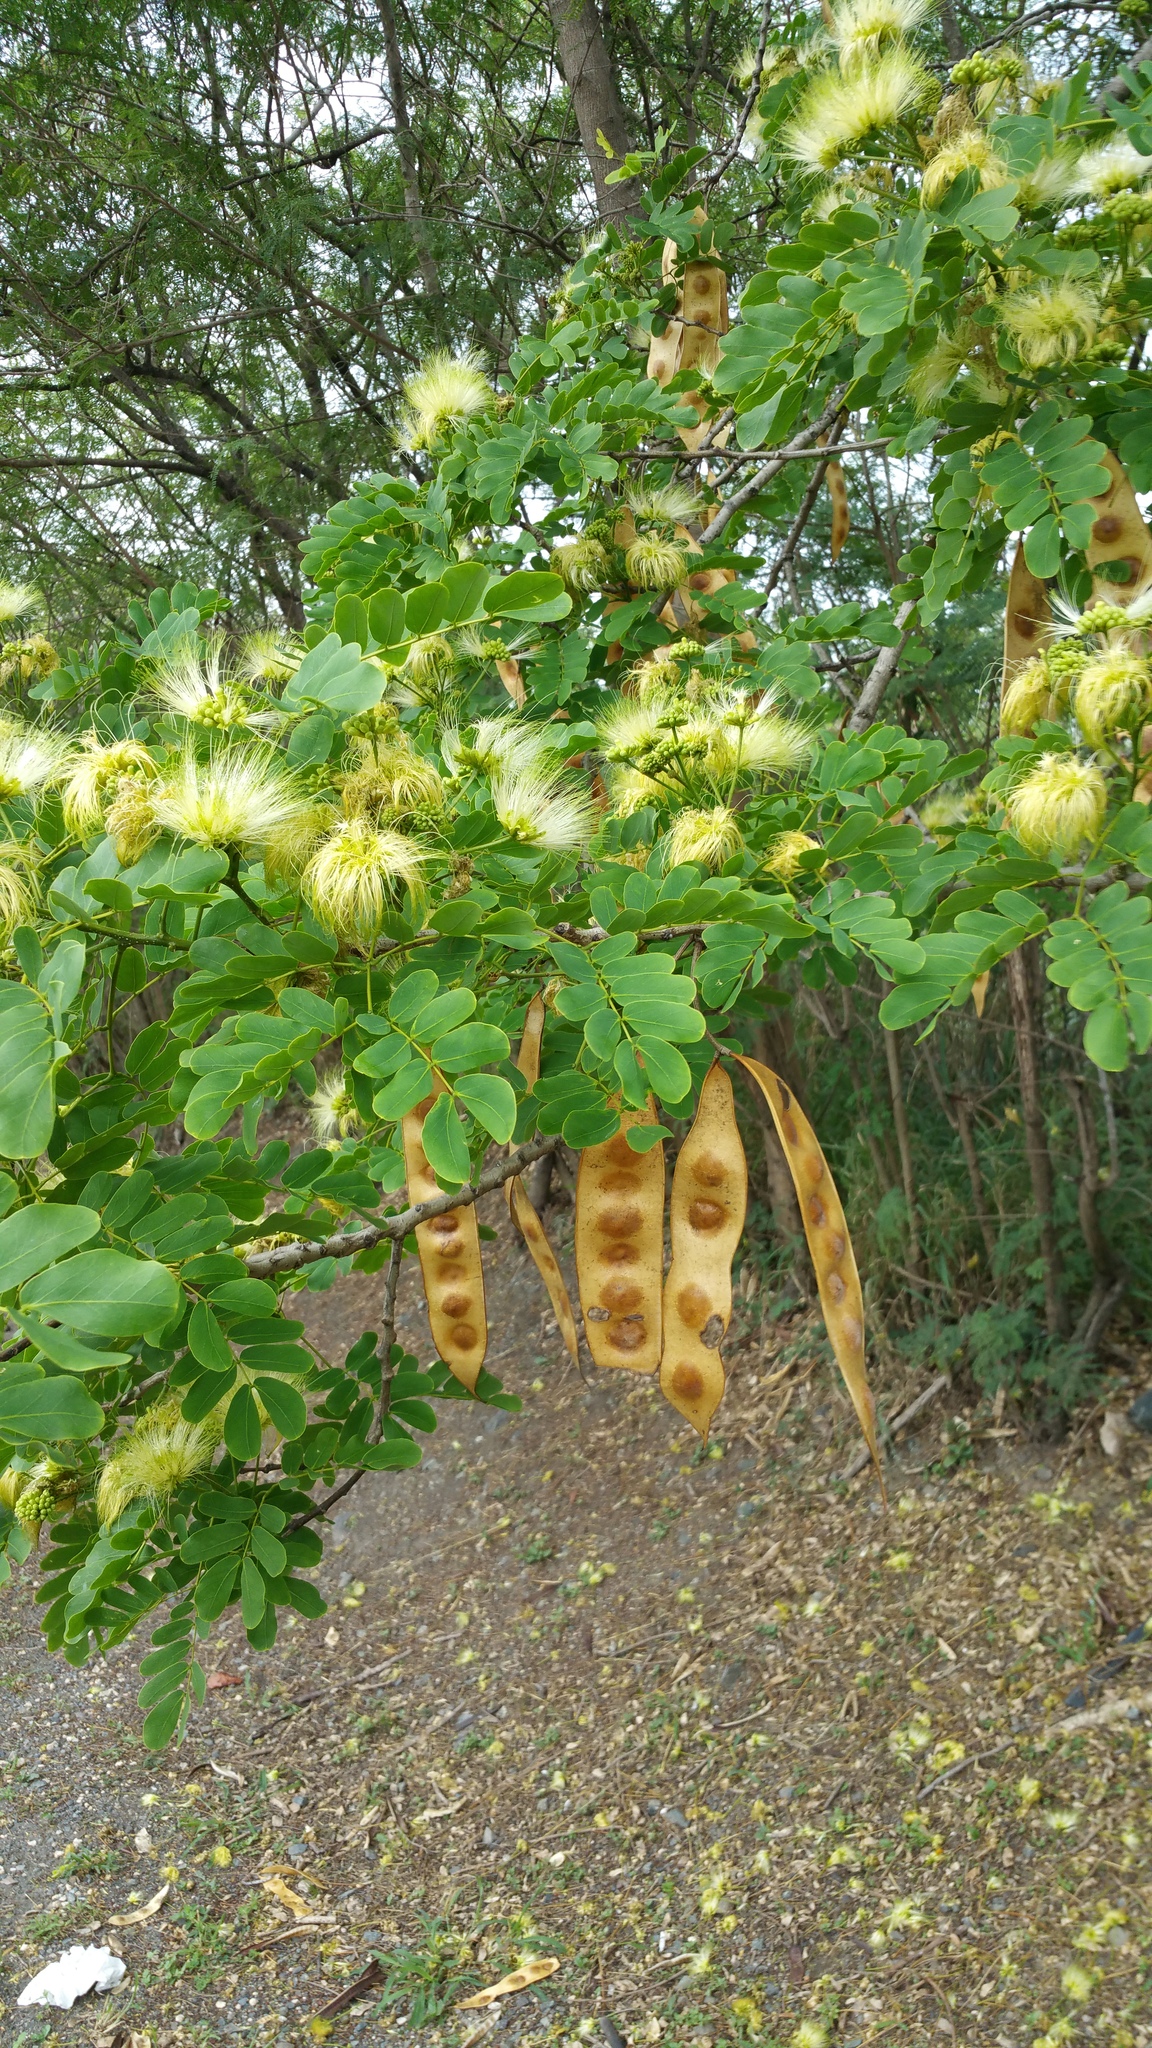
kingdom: Plantae
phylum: Tracheophyta
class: Magnoliopsida
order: Fabales
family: Fabaceae
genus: Albizia
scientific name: Albizia lebbeck
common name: Woman's tongue
